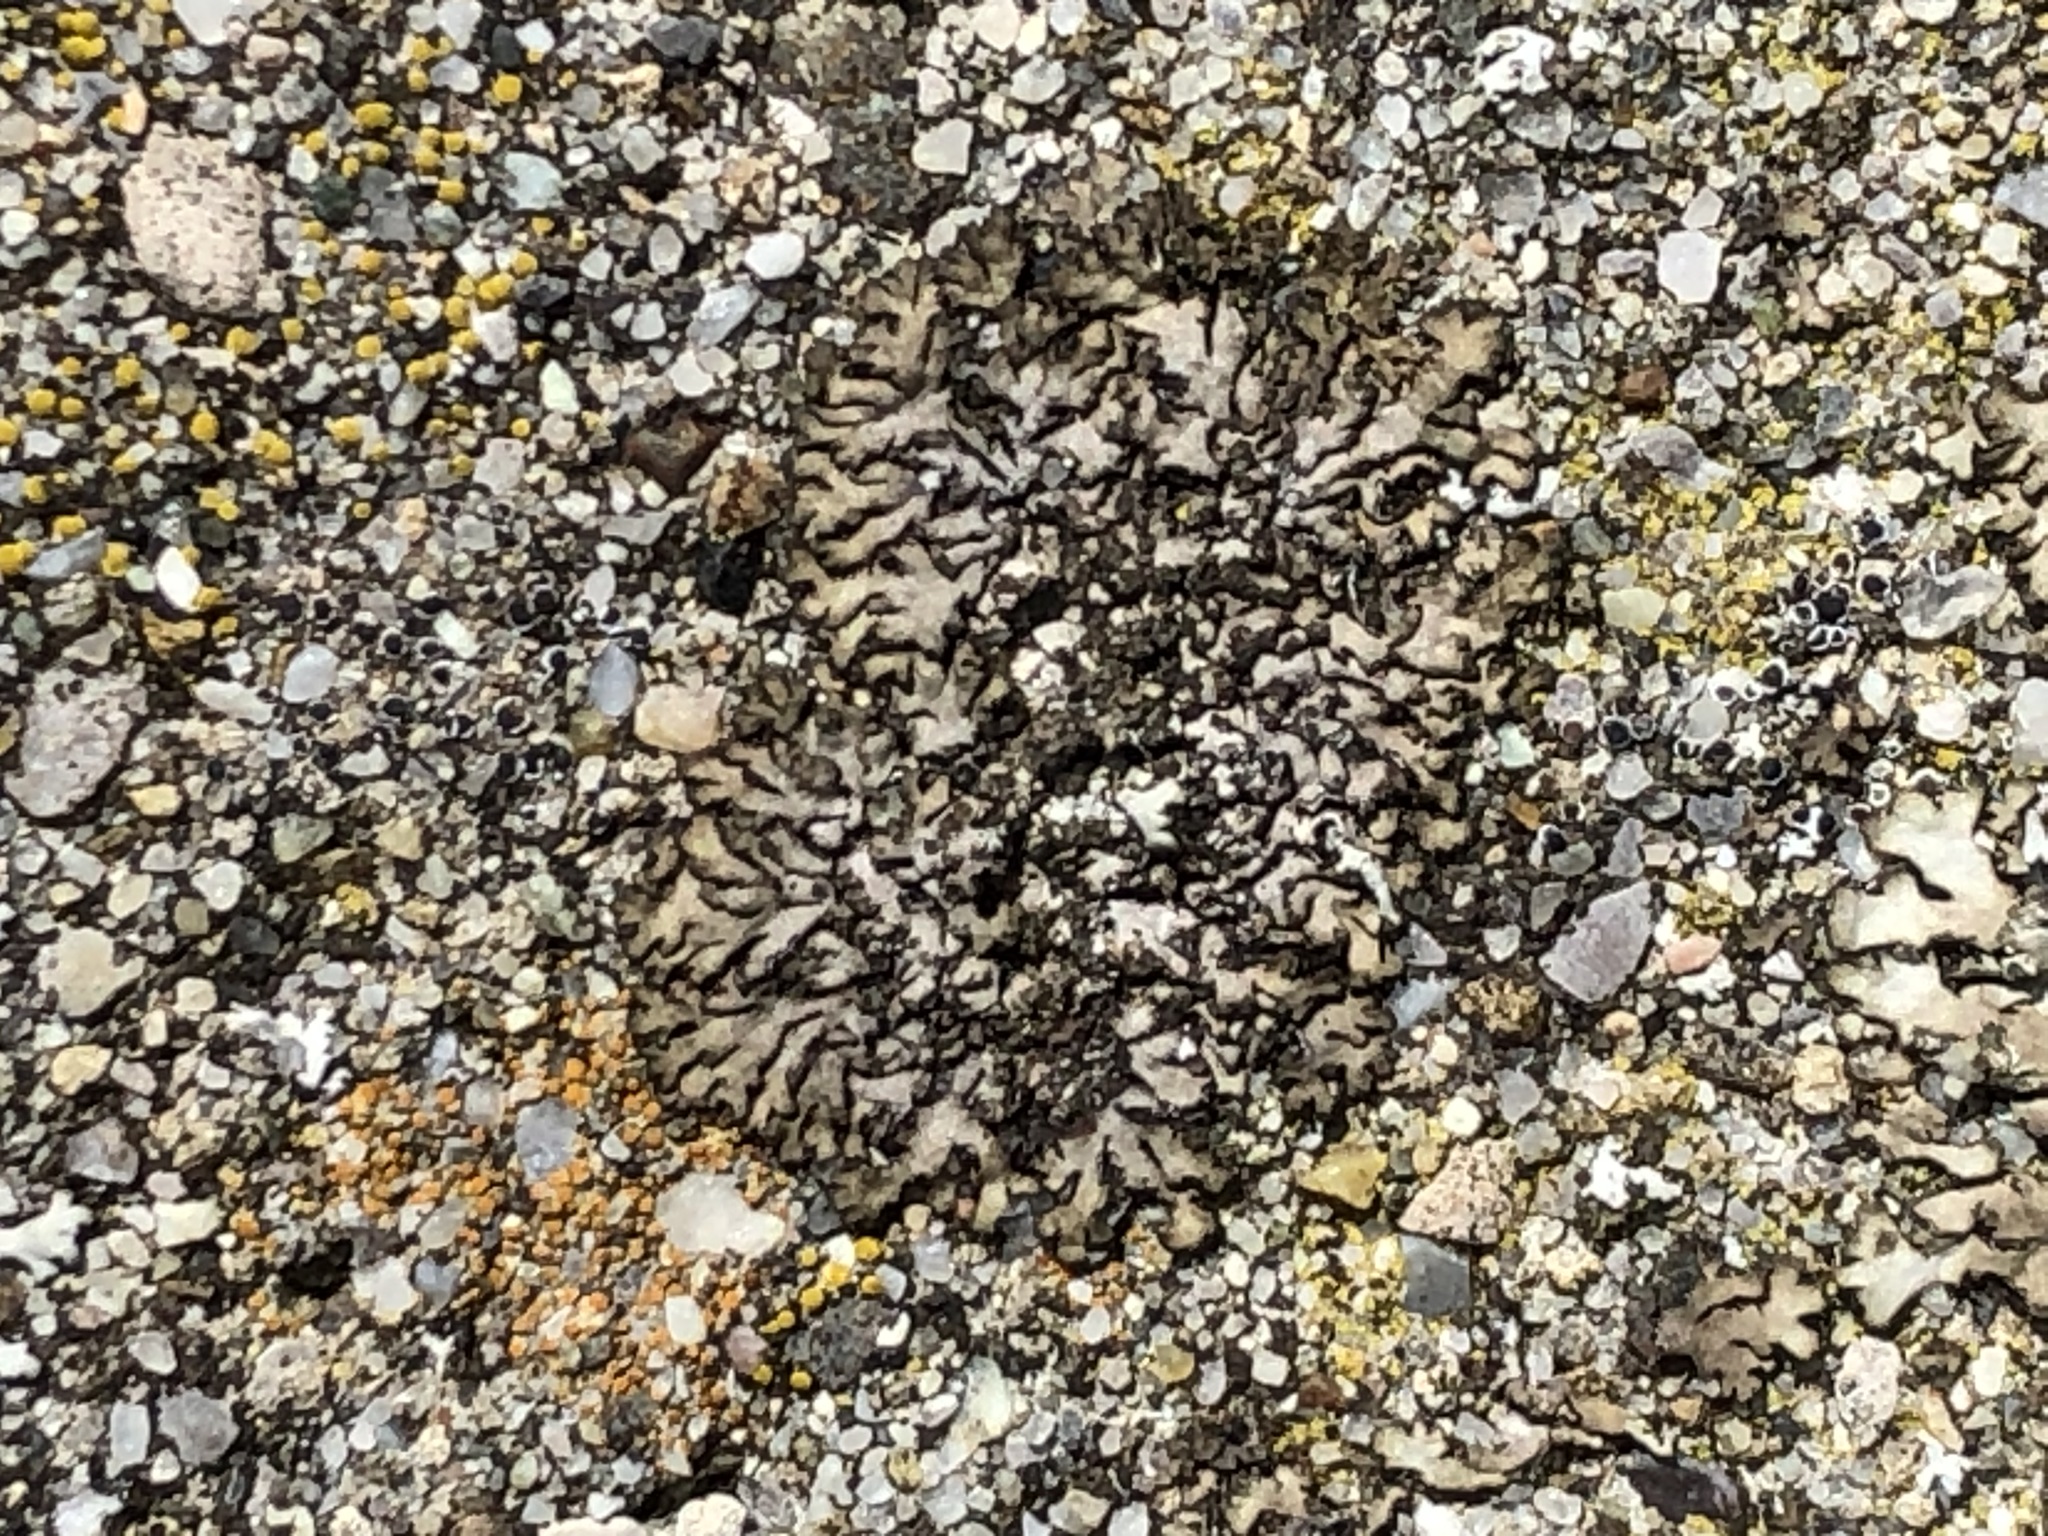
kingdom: Fungi
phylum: Ascomycota
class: Lecanoromycetes
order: Caliciales
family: Physciaceae
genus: Phaeophyscia
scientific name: Phaeophyscia orbicularis
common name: Mealy shadow lichen
